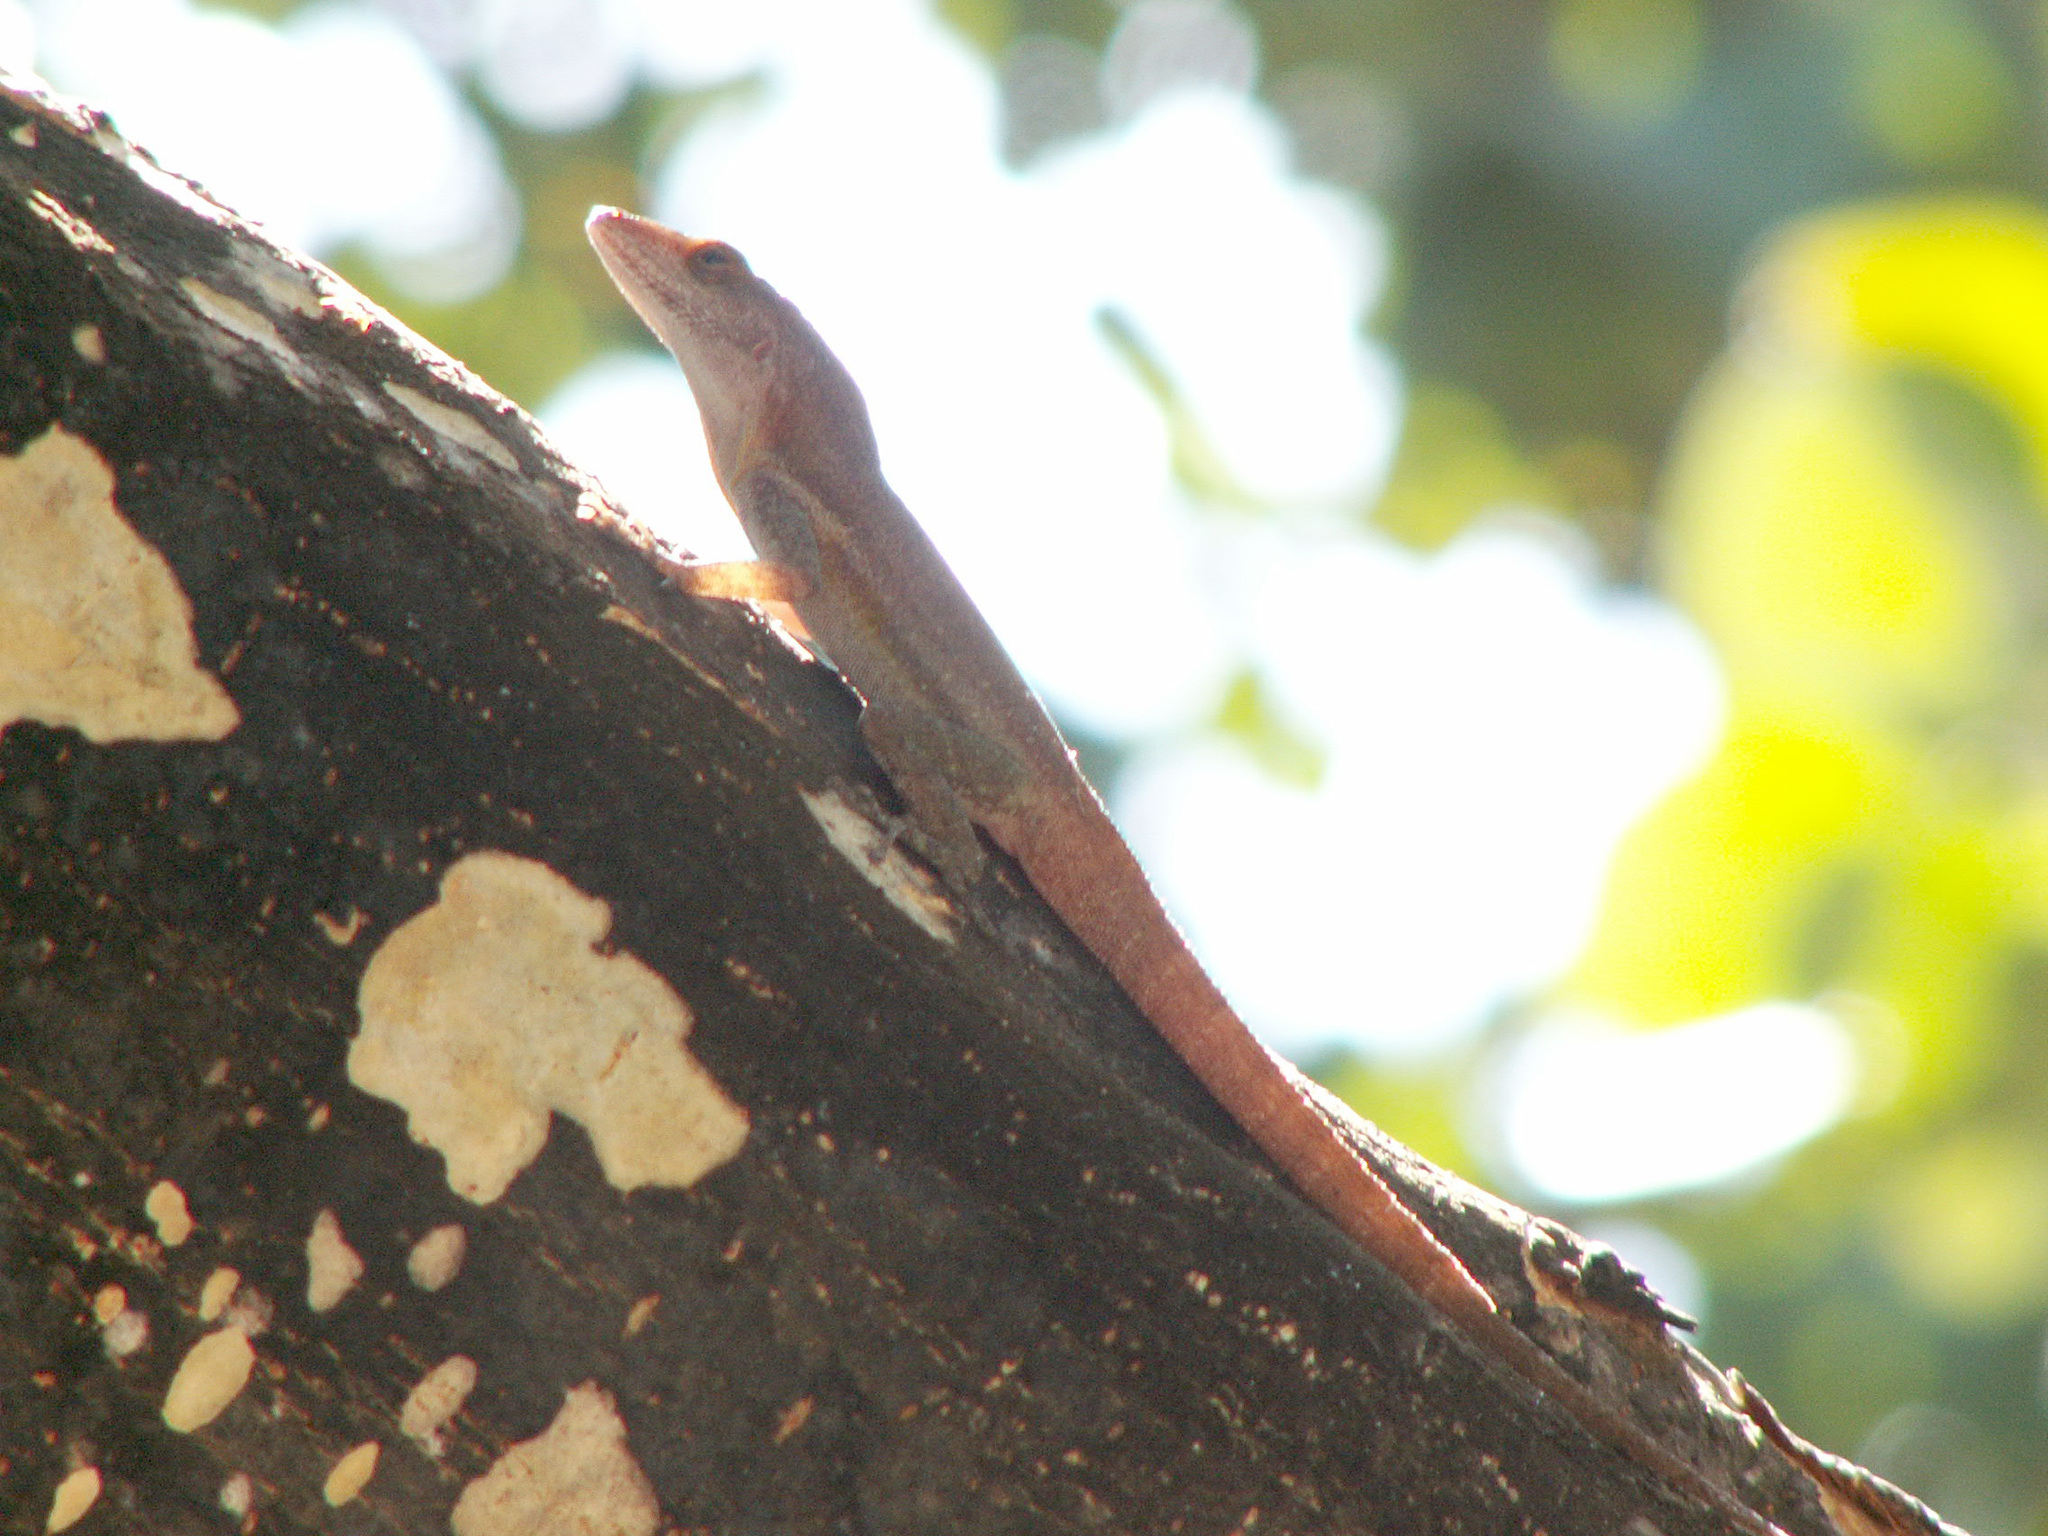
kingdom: Animalia
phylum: Chordata
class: Squamata
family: Dactyloidae
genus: Anolis
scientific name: Anolis terraealtae
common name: Les saintes anole
